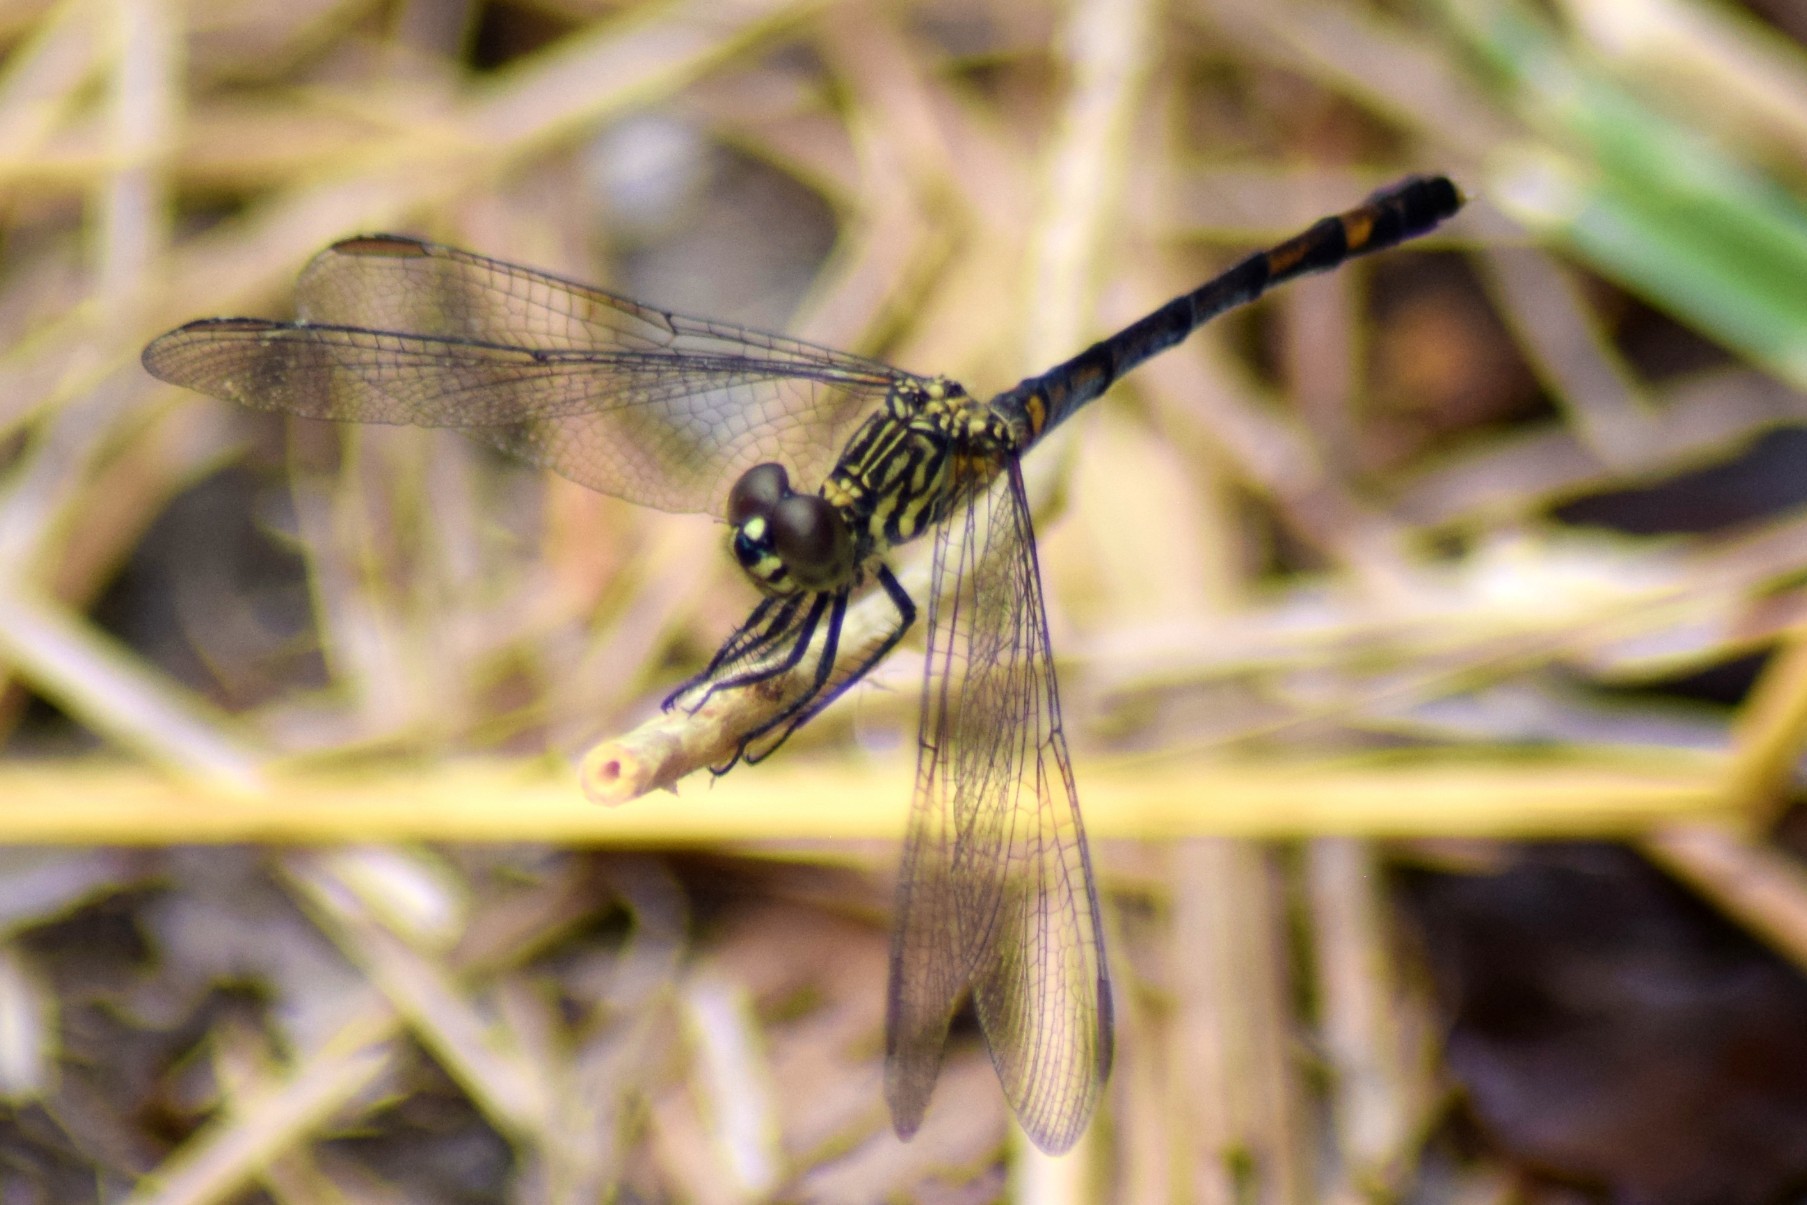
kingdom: Animalia
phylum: Arthropoda
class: Insecta
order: Odonata
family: Libellulidae
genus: Erythrodiplax
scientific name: Erythrodiplax berenice
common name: Seaside dragonlet
